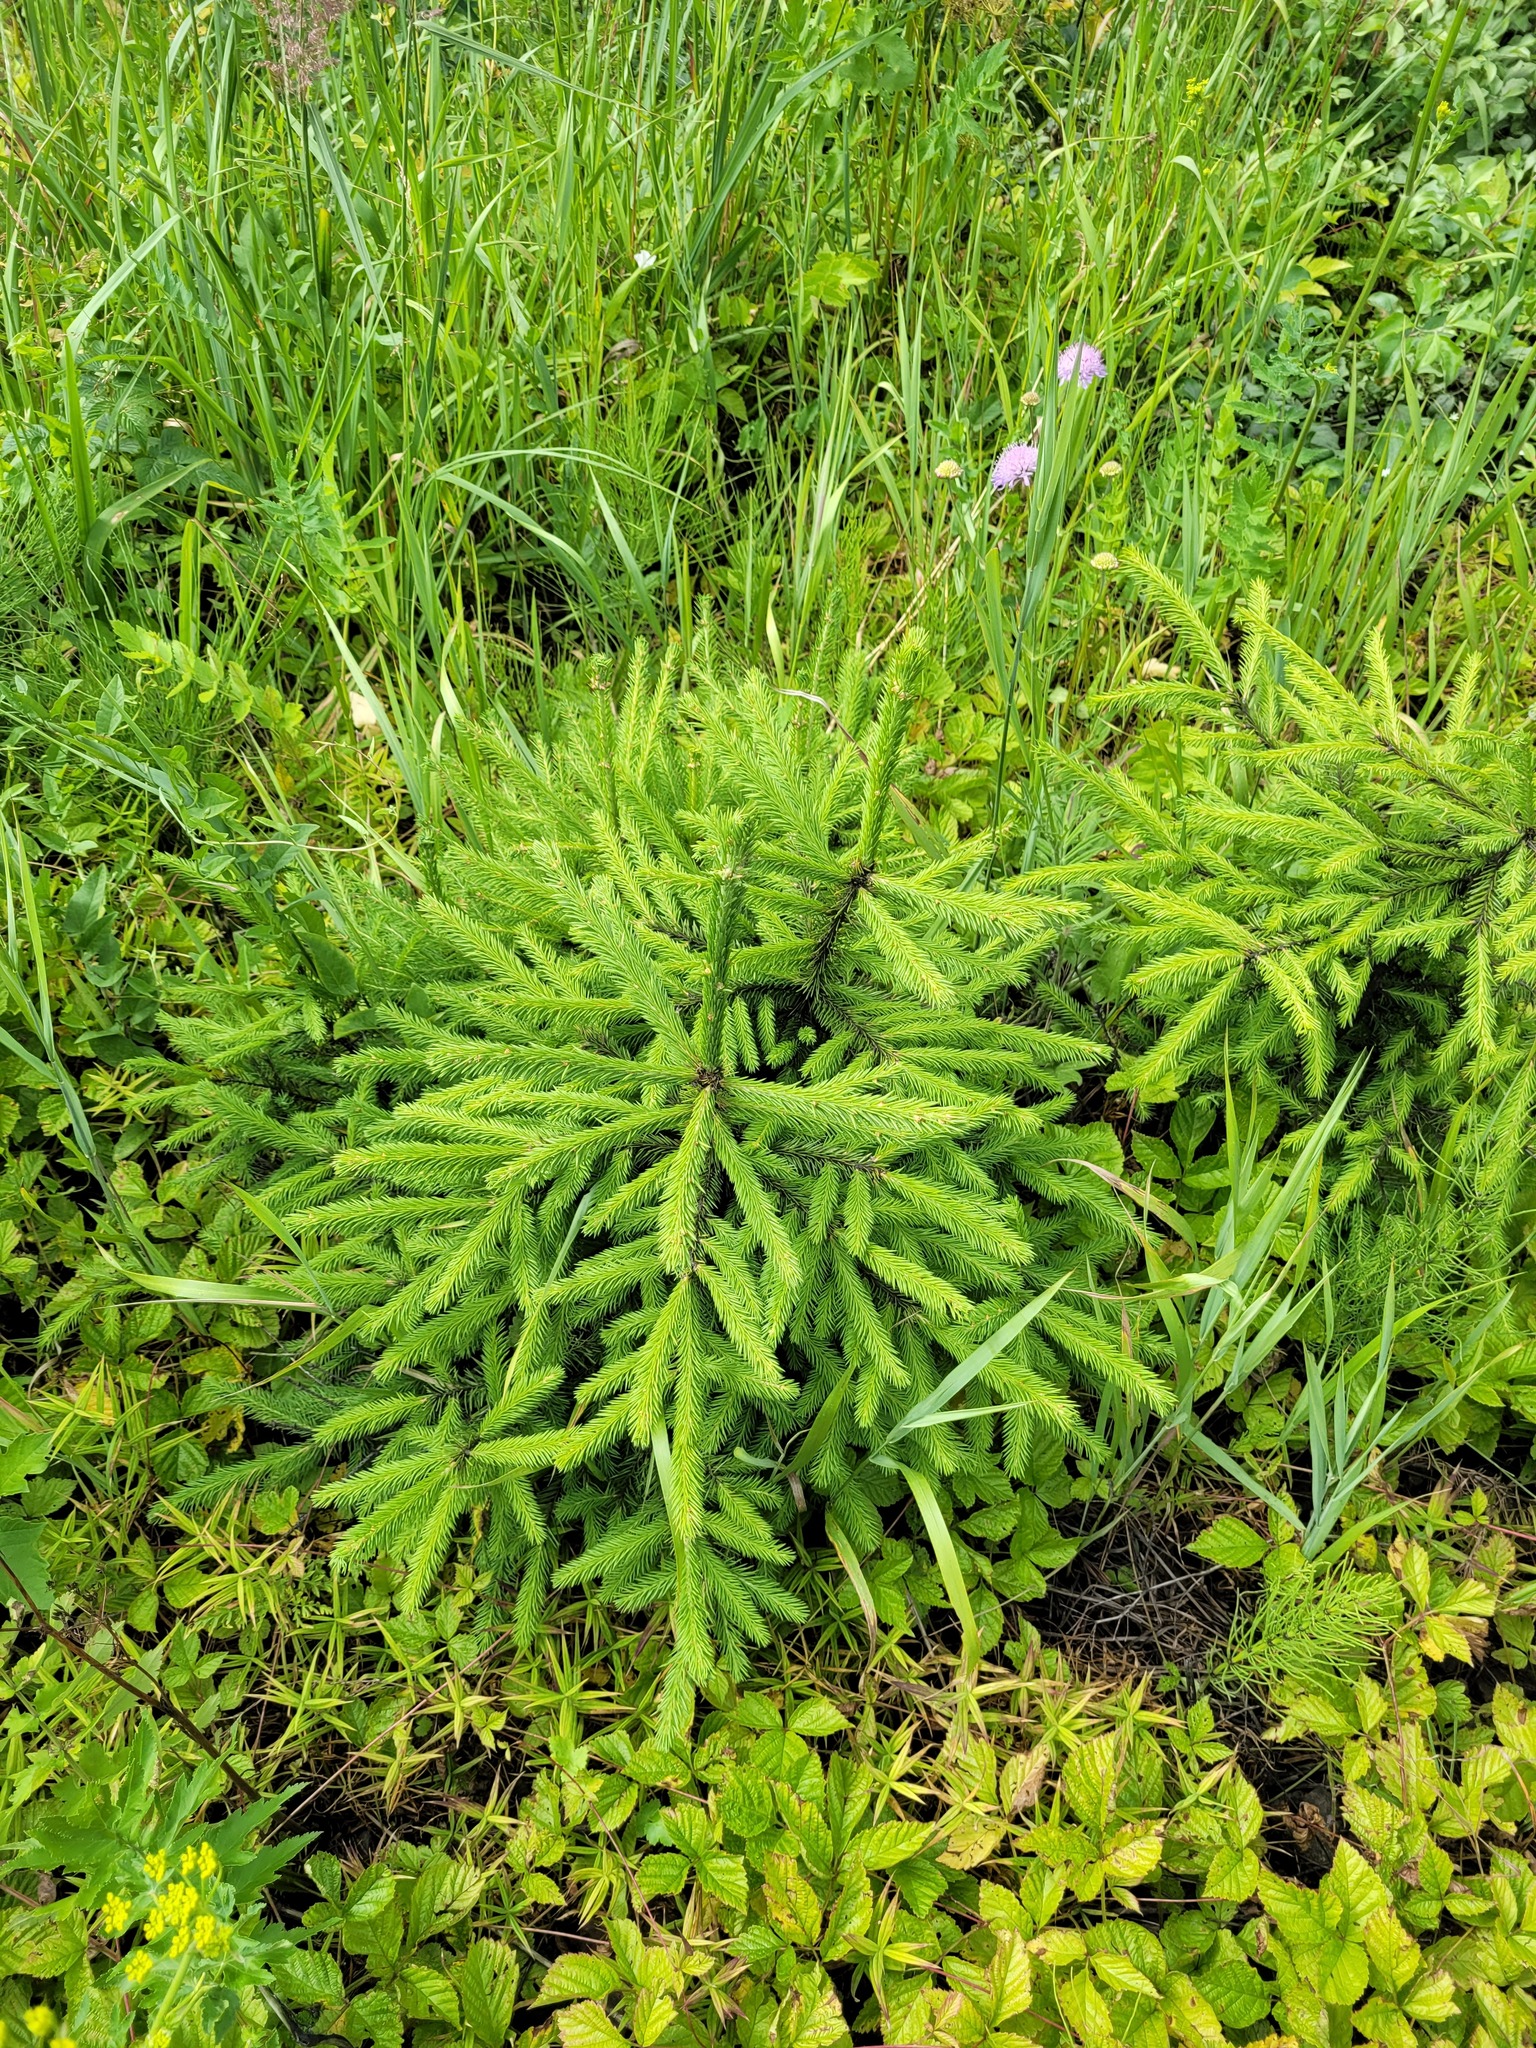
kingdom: Plantae
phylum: Tracheophyta
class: Pinopsida
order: Pinales
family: Pinaceae
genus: Picea
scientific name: Picea abies
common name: Norway spruce
